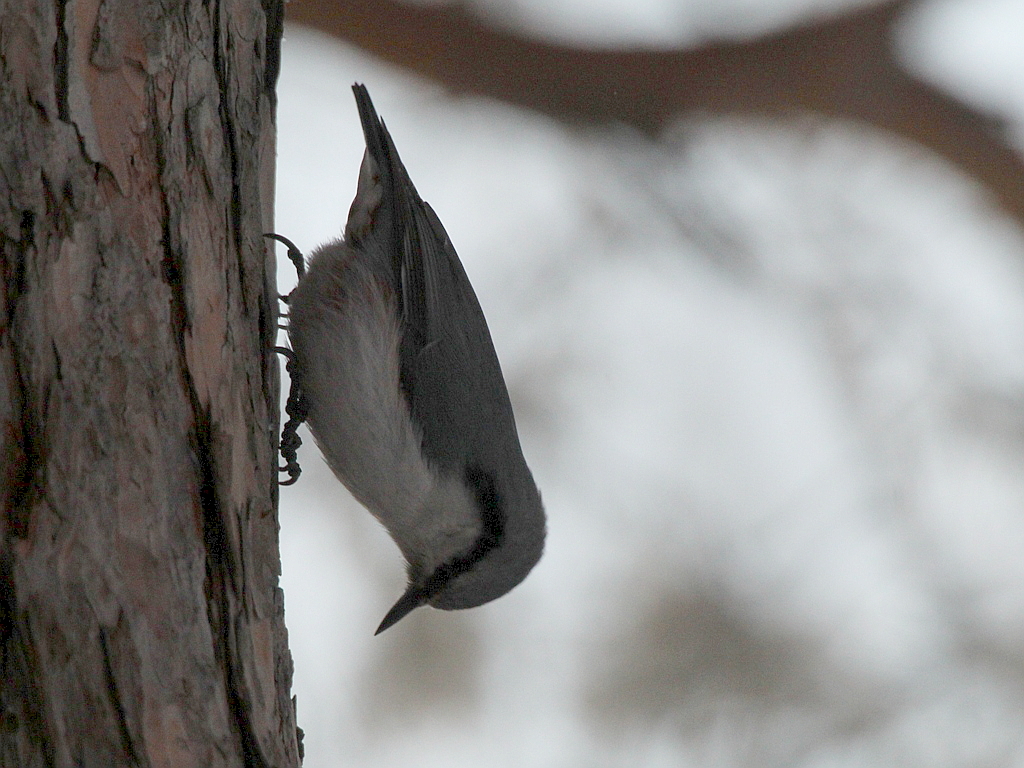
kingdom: Animalia
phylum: Chordata
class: Aves
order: Passeriformes
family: Sittidae
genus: Sitta
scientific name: Sitta europaea
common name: Eurasian nuthatch
